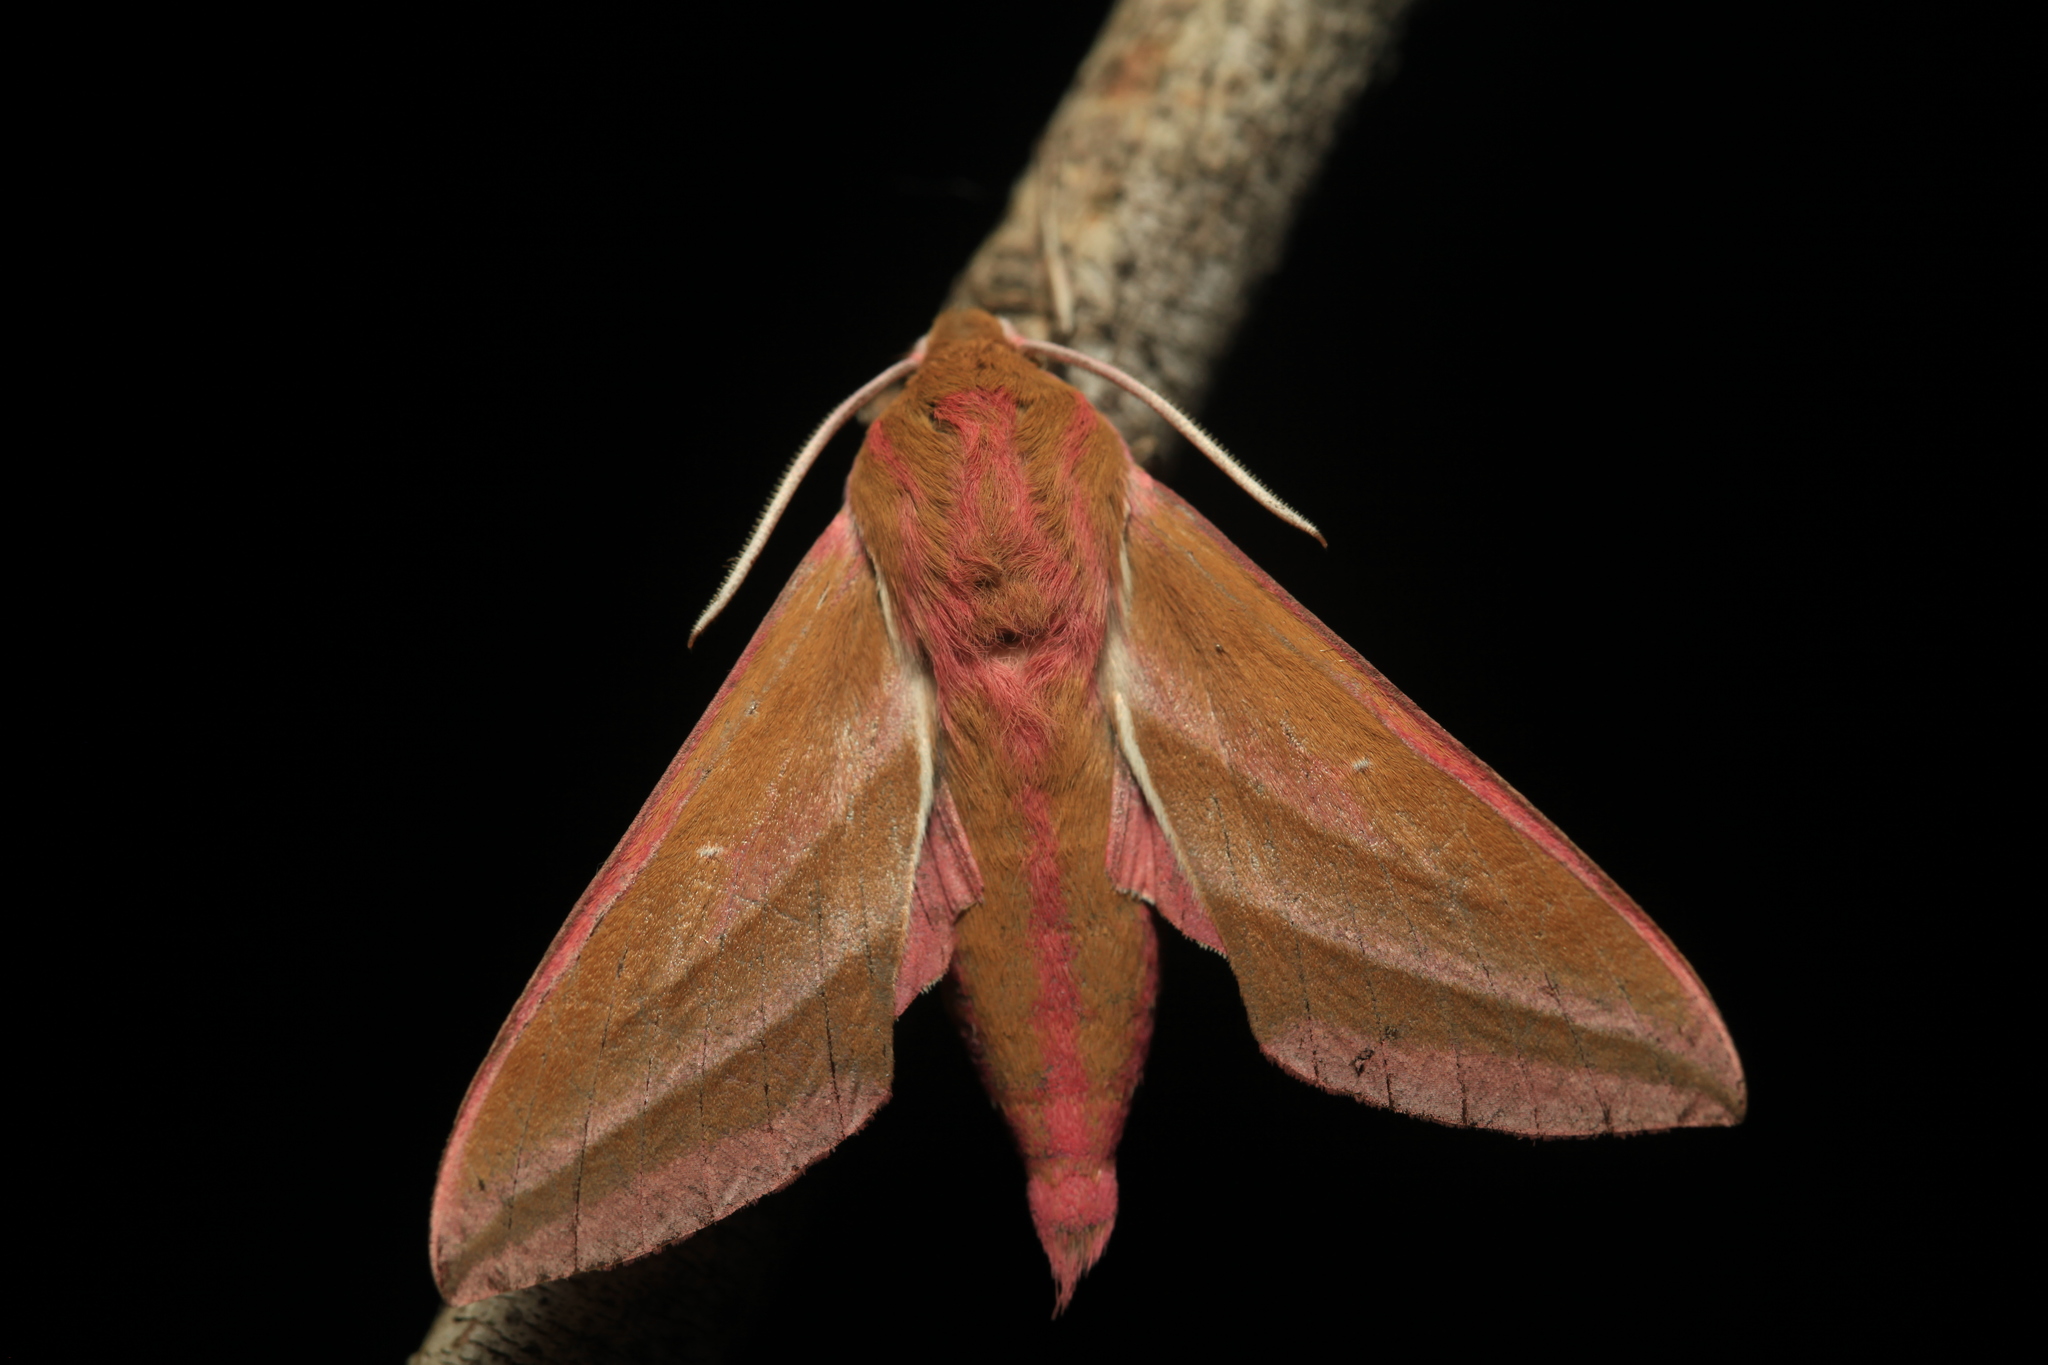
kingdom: Animalia
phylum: Arthropoda
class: Insecta
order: Lepidoptera
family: Sphingidae
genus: Deilephila
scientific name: Deilephila elpenor
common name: Elephant hawk-moth
